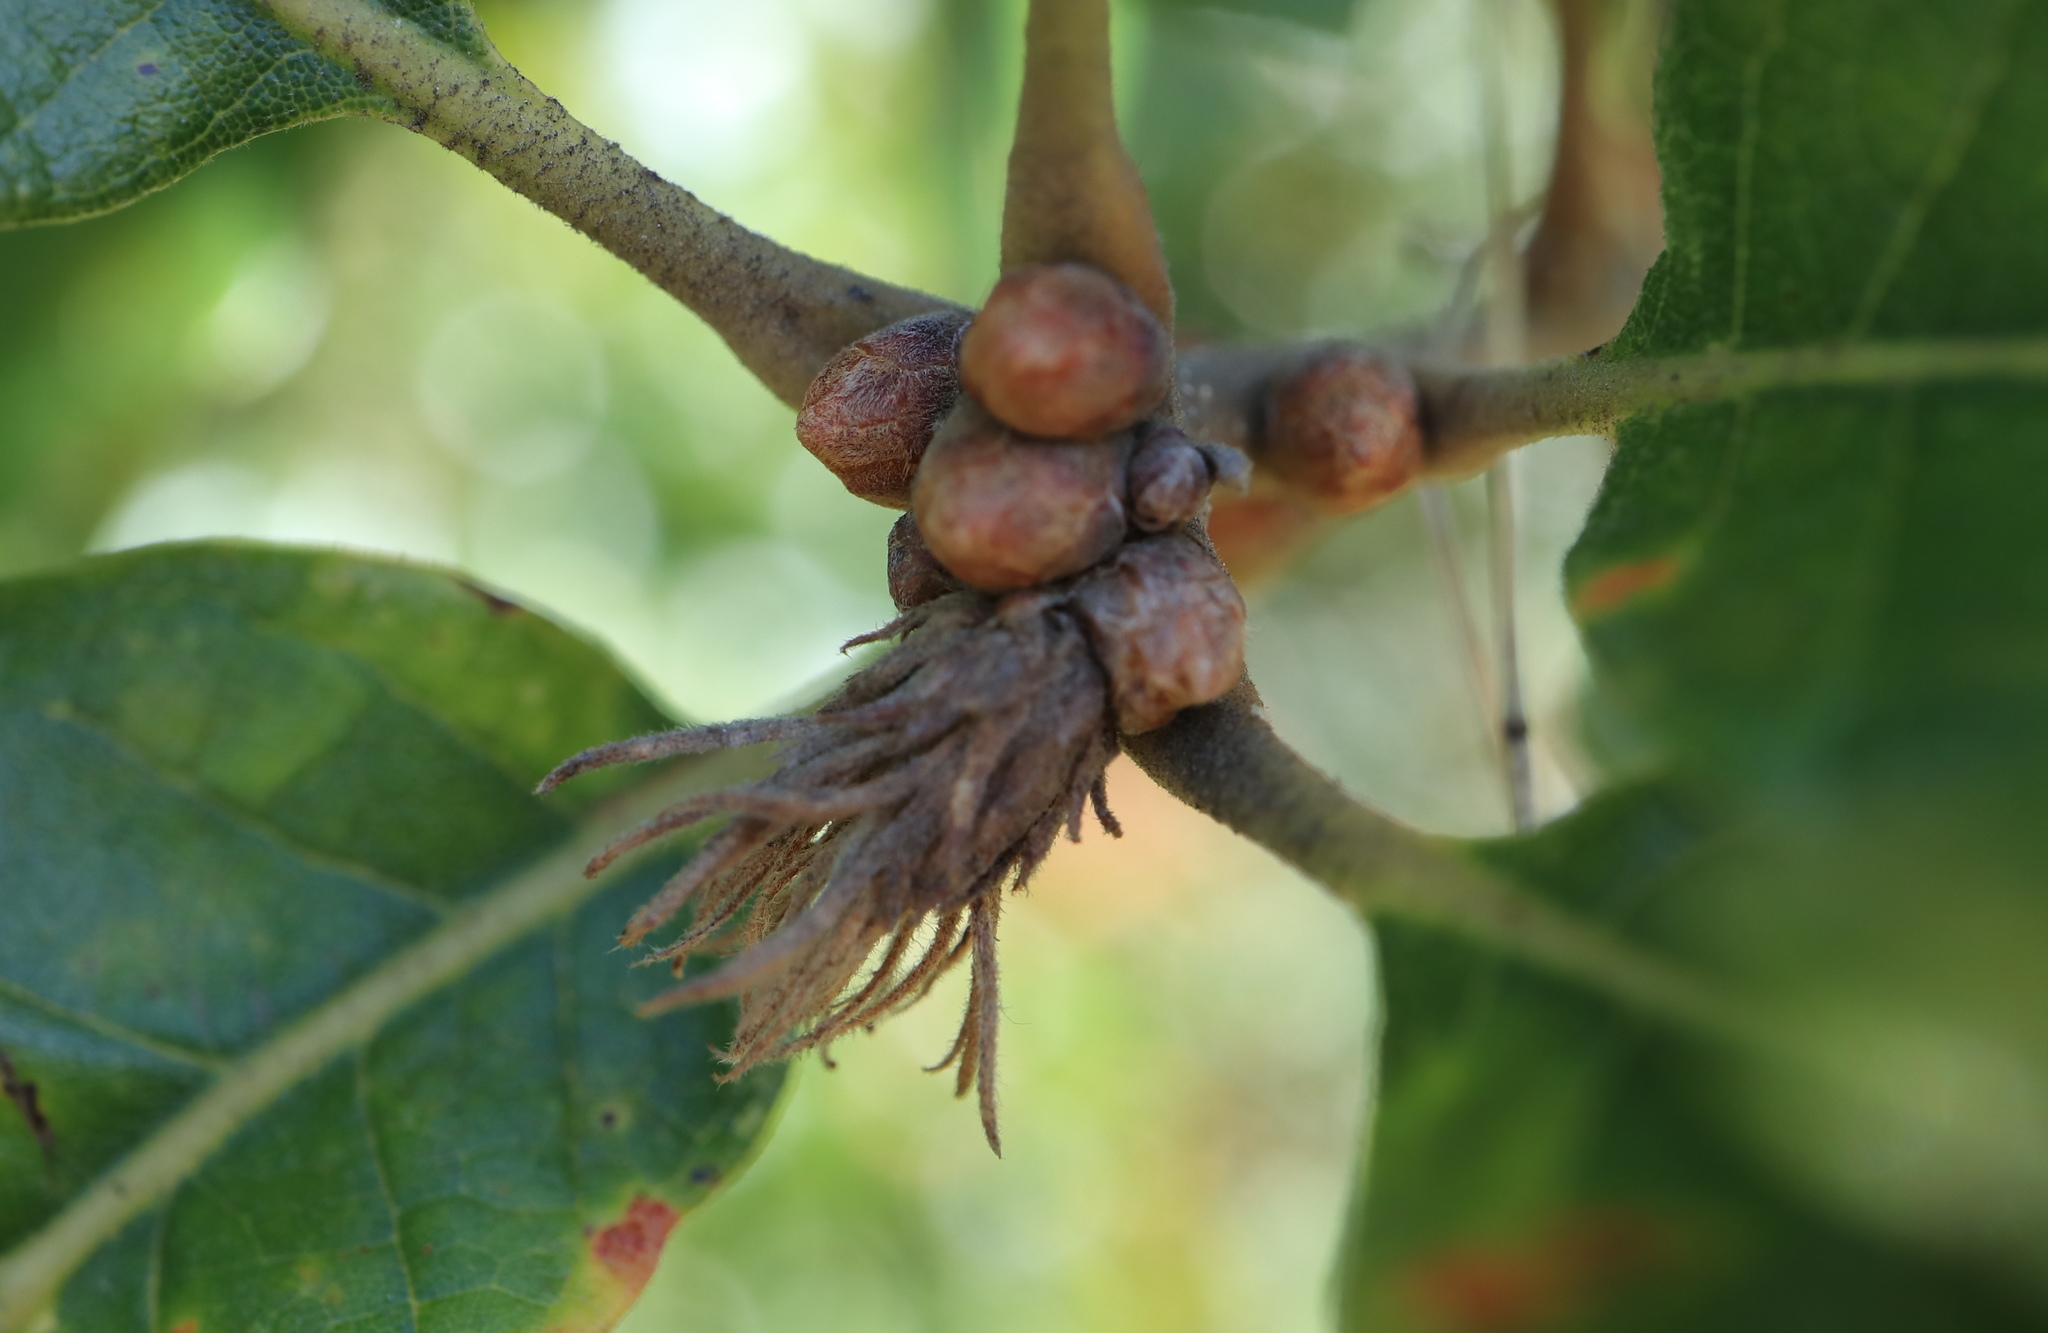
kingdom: Animalia
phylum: Arthropoda
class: Insecta
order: Hymenoptera
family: Cynipidae
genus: Andricus
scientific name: Andricus
